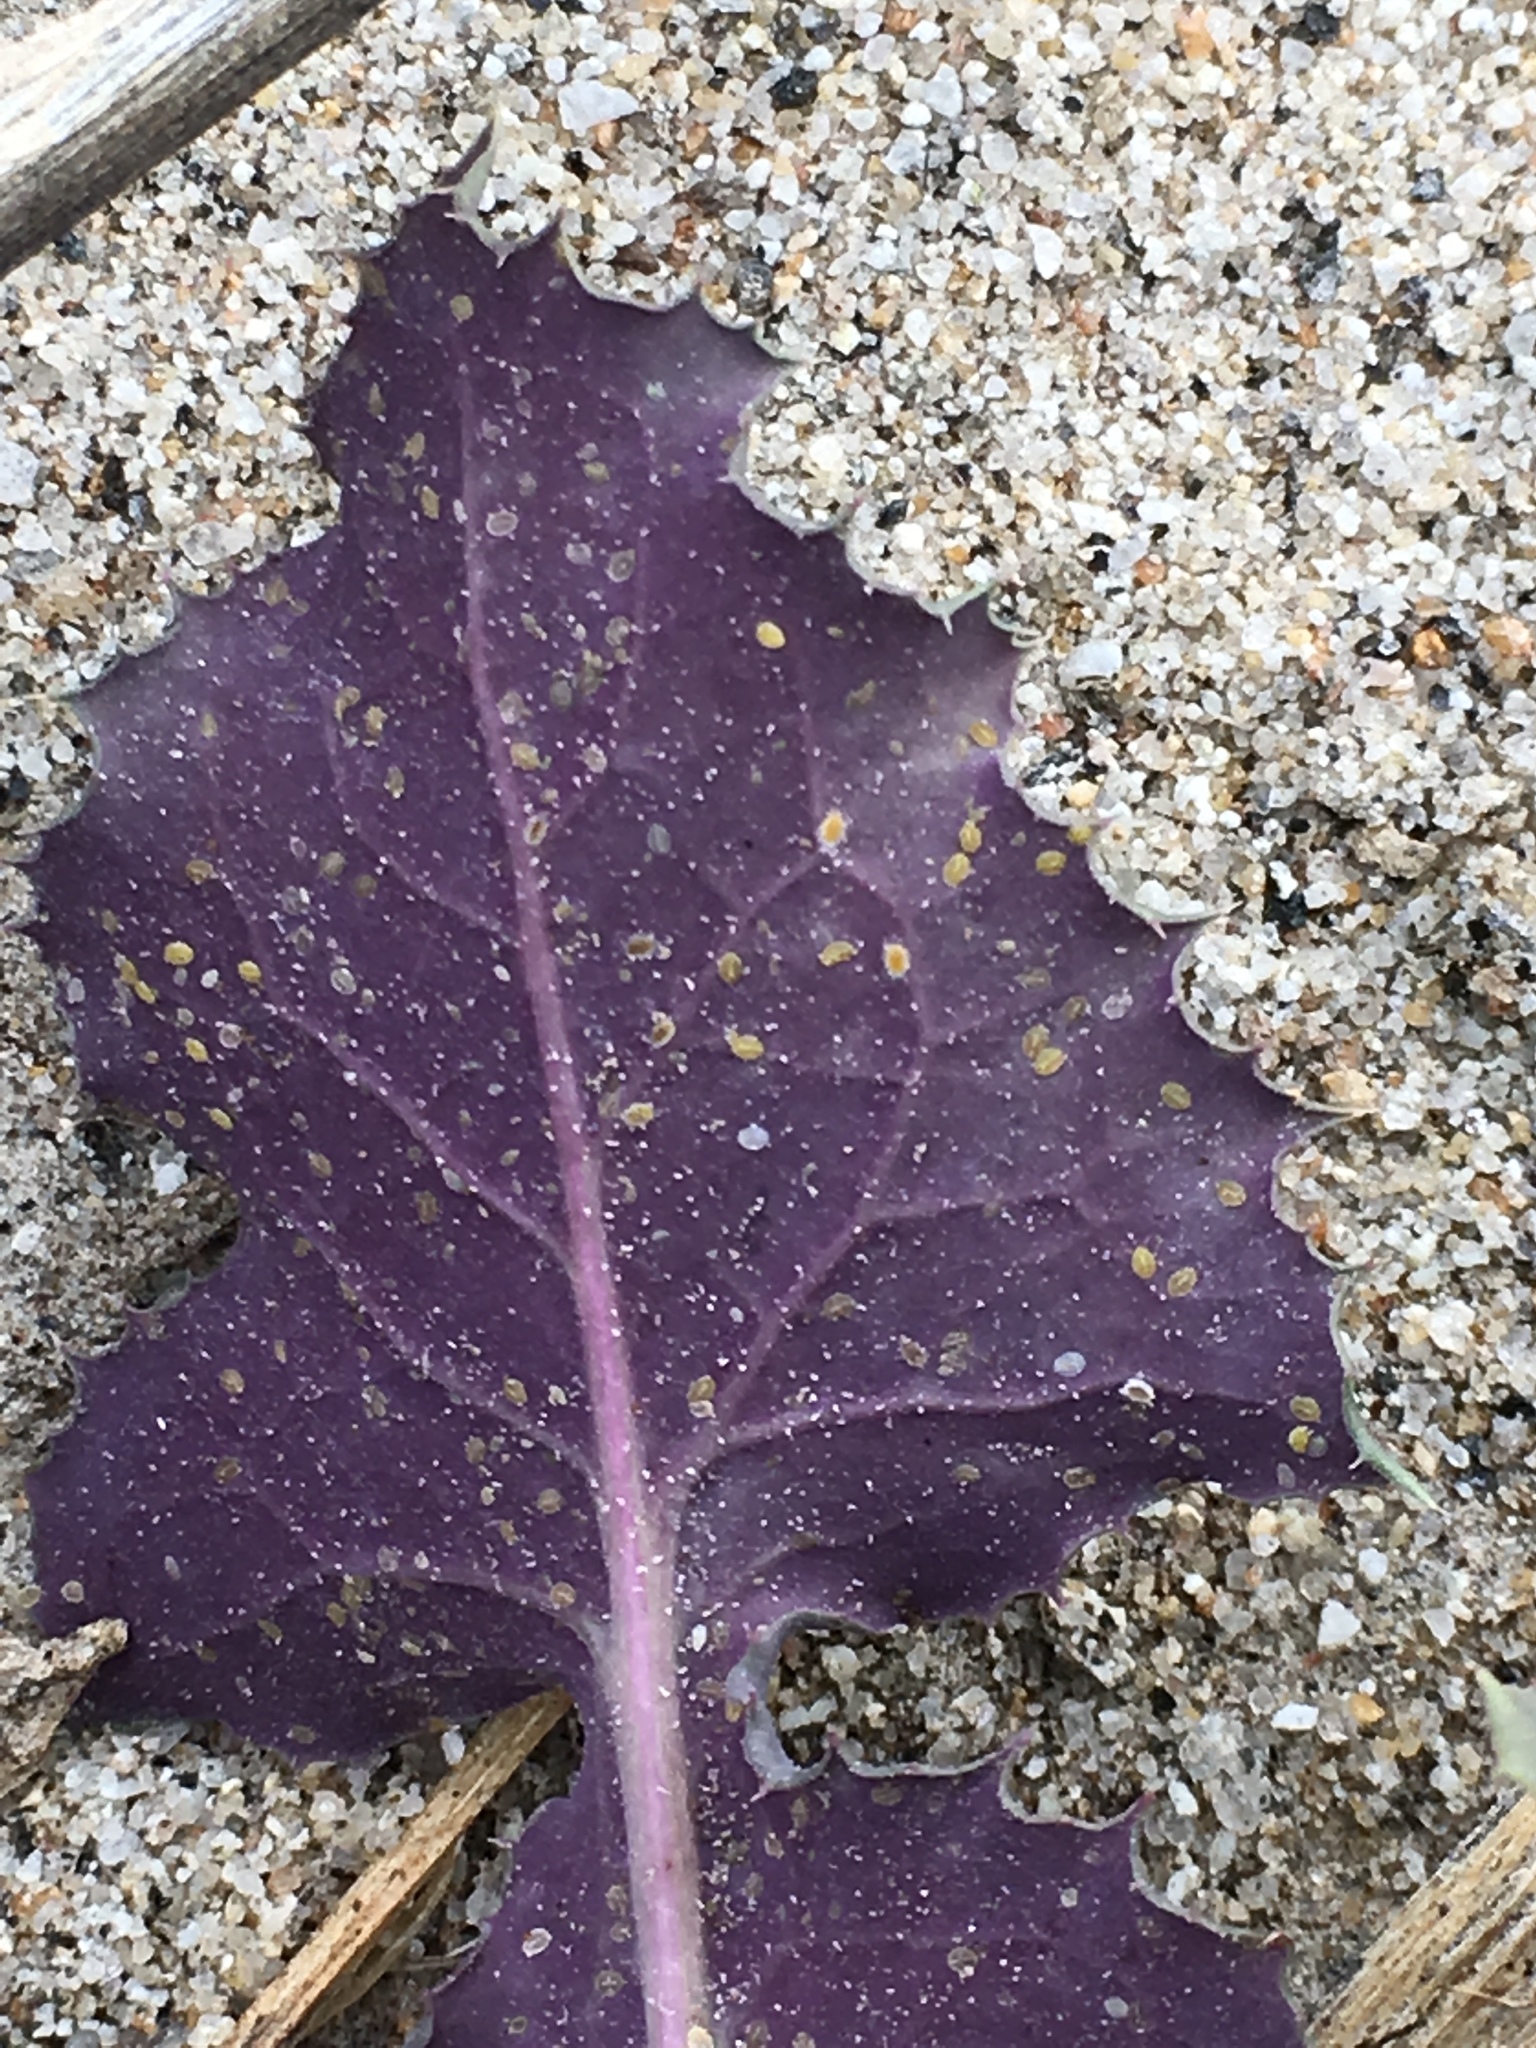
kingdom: Plantae
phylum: Tracheophyta
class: Magnoliopsida
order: Asterales
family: Asteraceae
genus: Sonchus
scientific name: Sonchus oleraceus
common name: Common sowthistle
